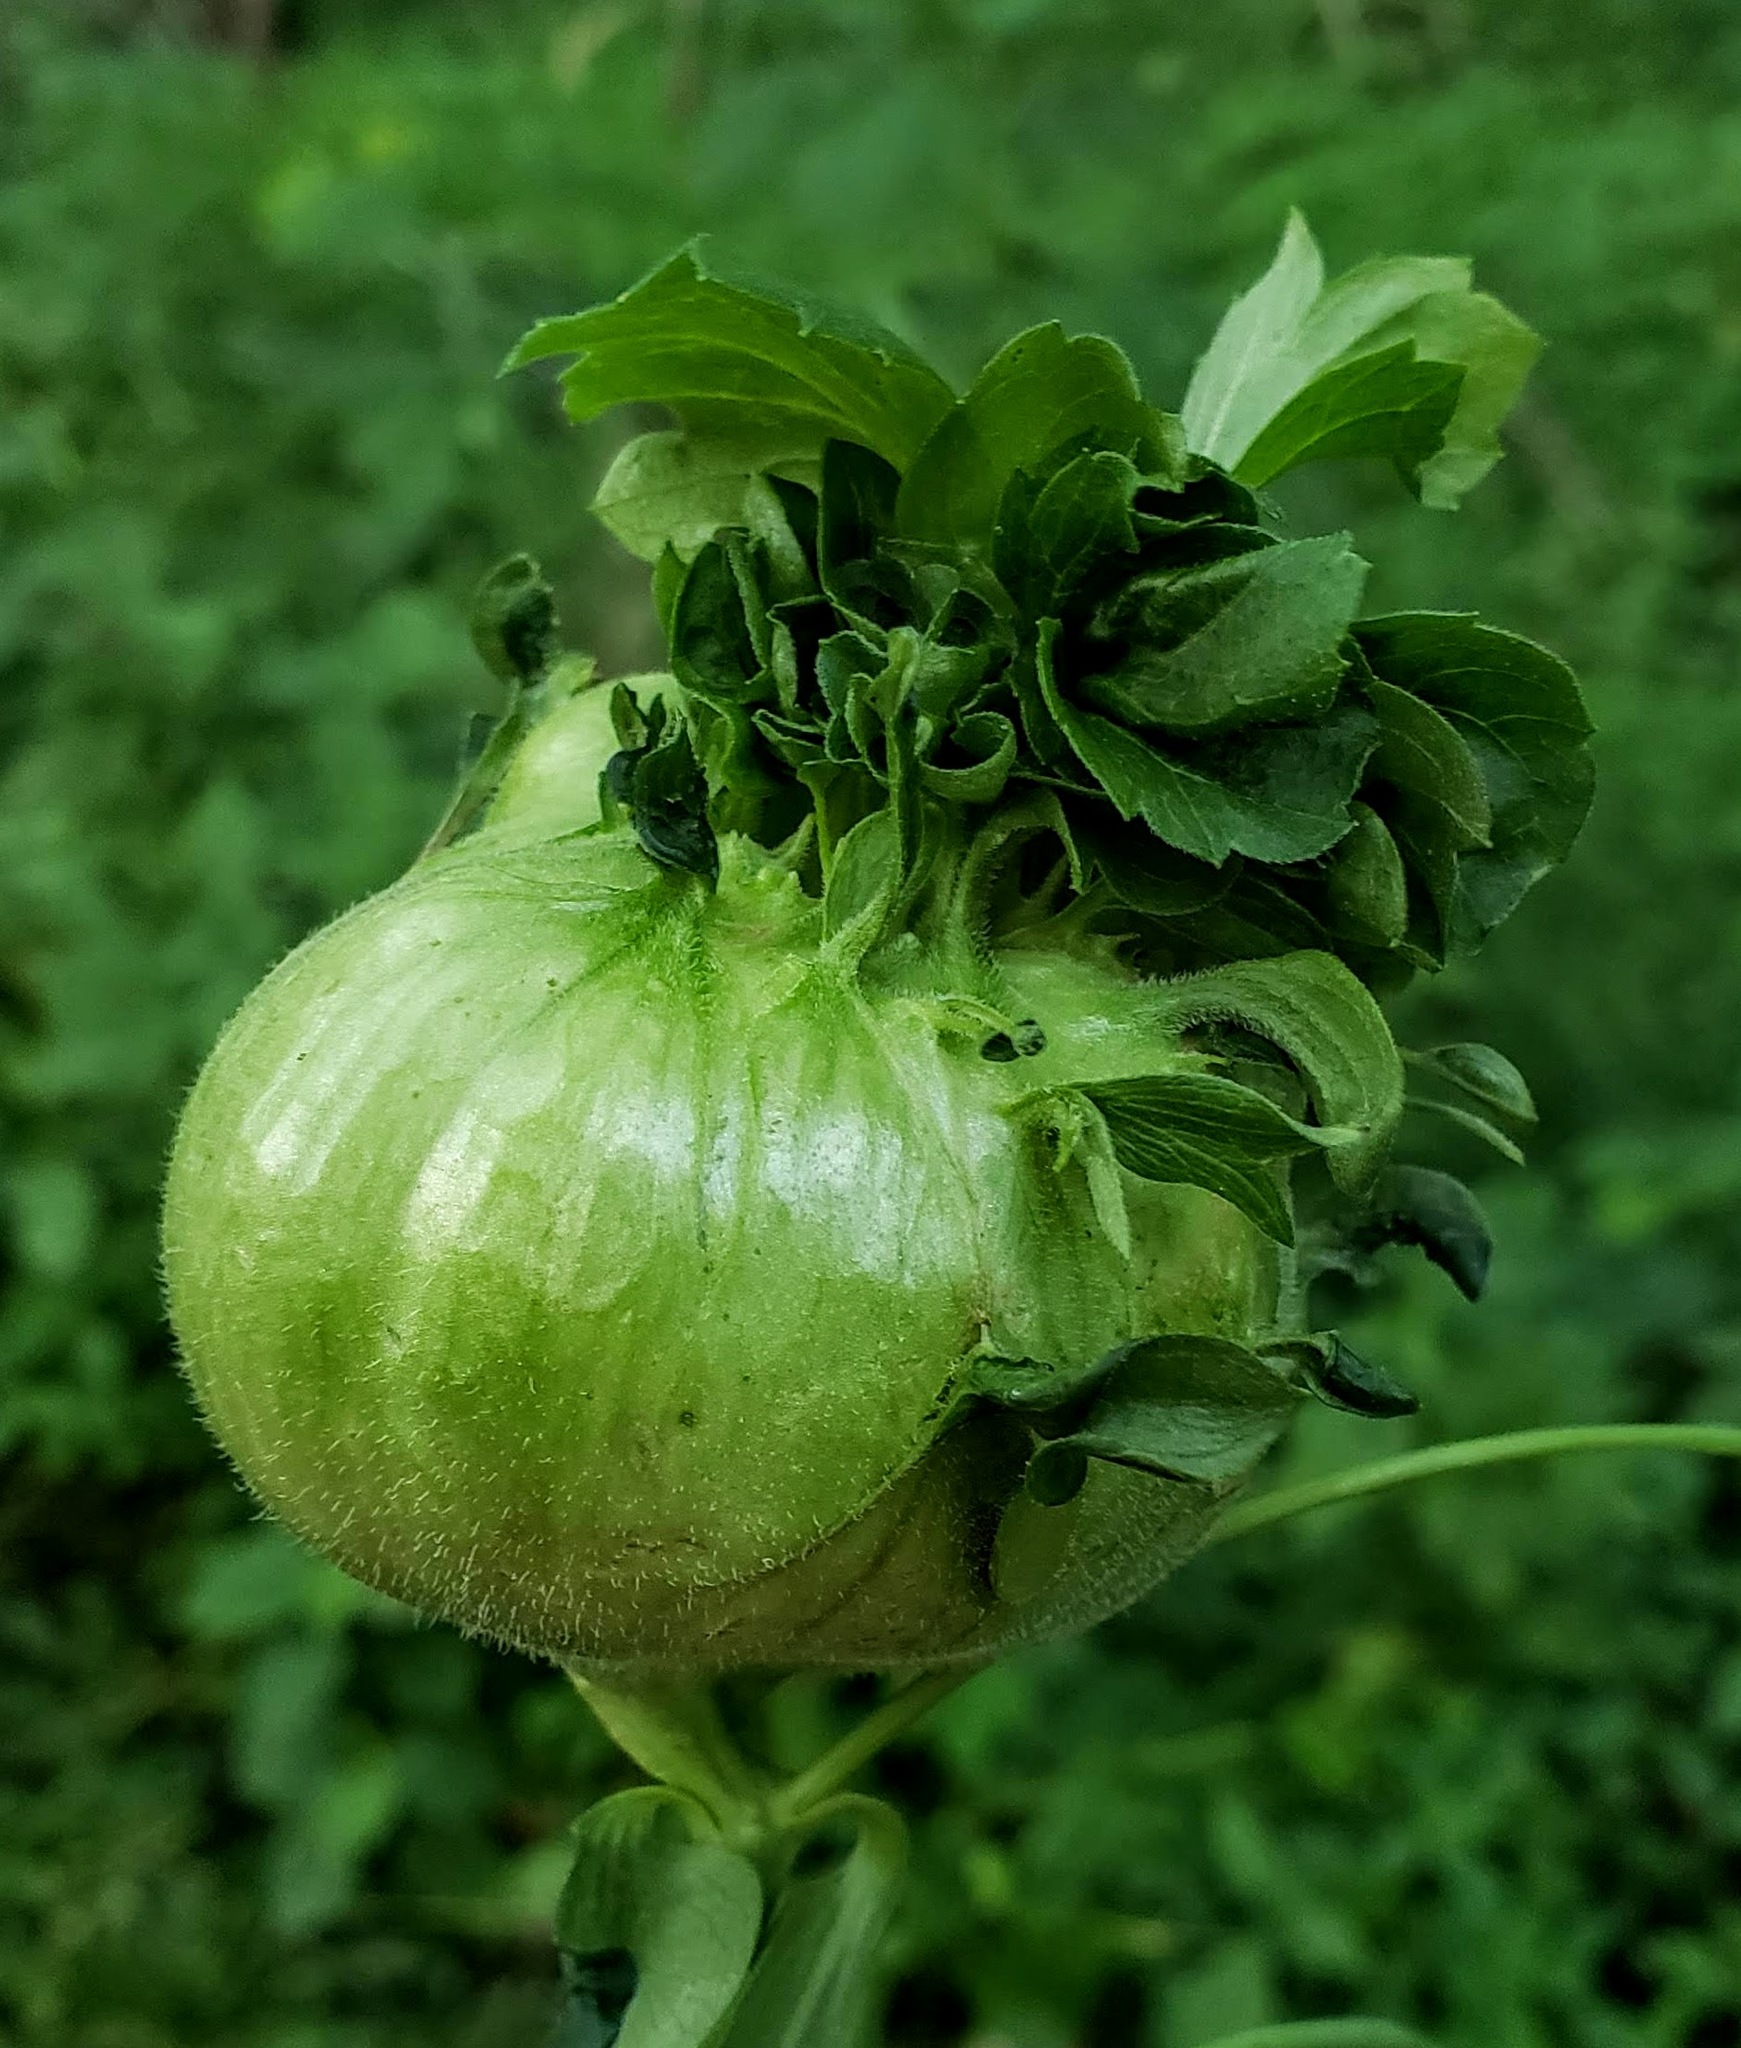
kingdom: Animalia
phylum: Arthropoda
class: Insecta
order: Diptera
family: Cecidomyiidae
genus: Asphondylia
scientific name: Asphondylia rudbeckiaeconspicua
